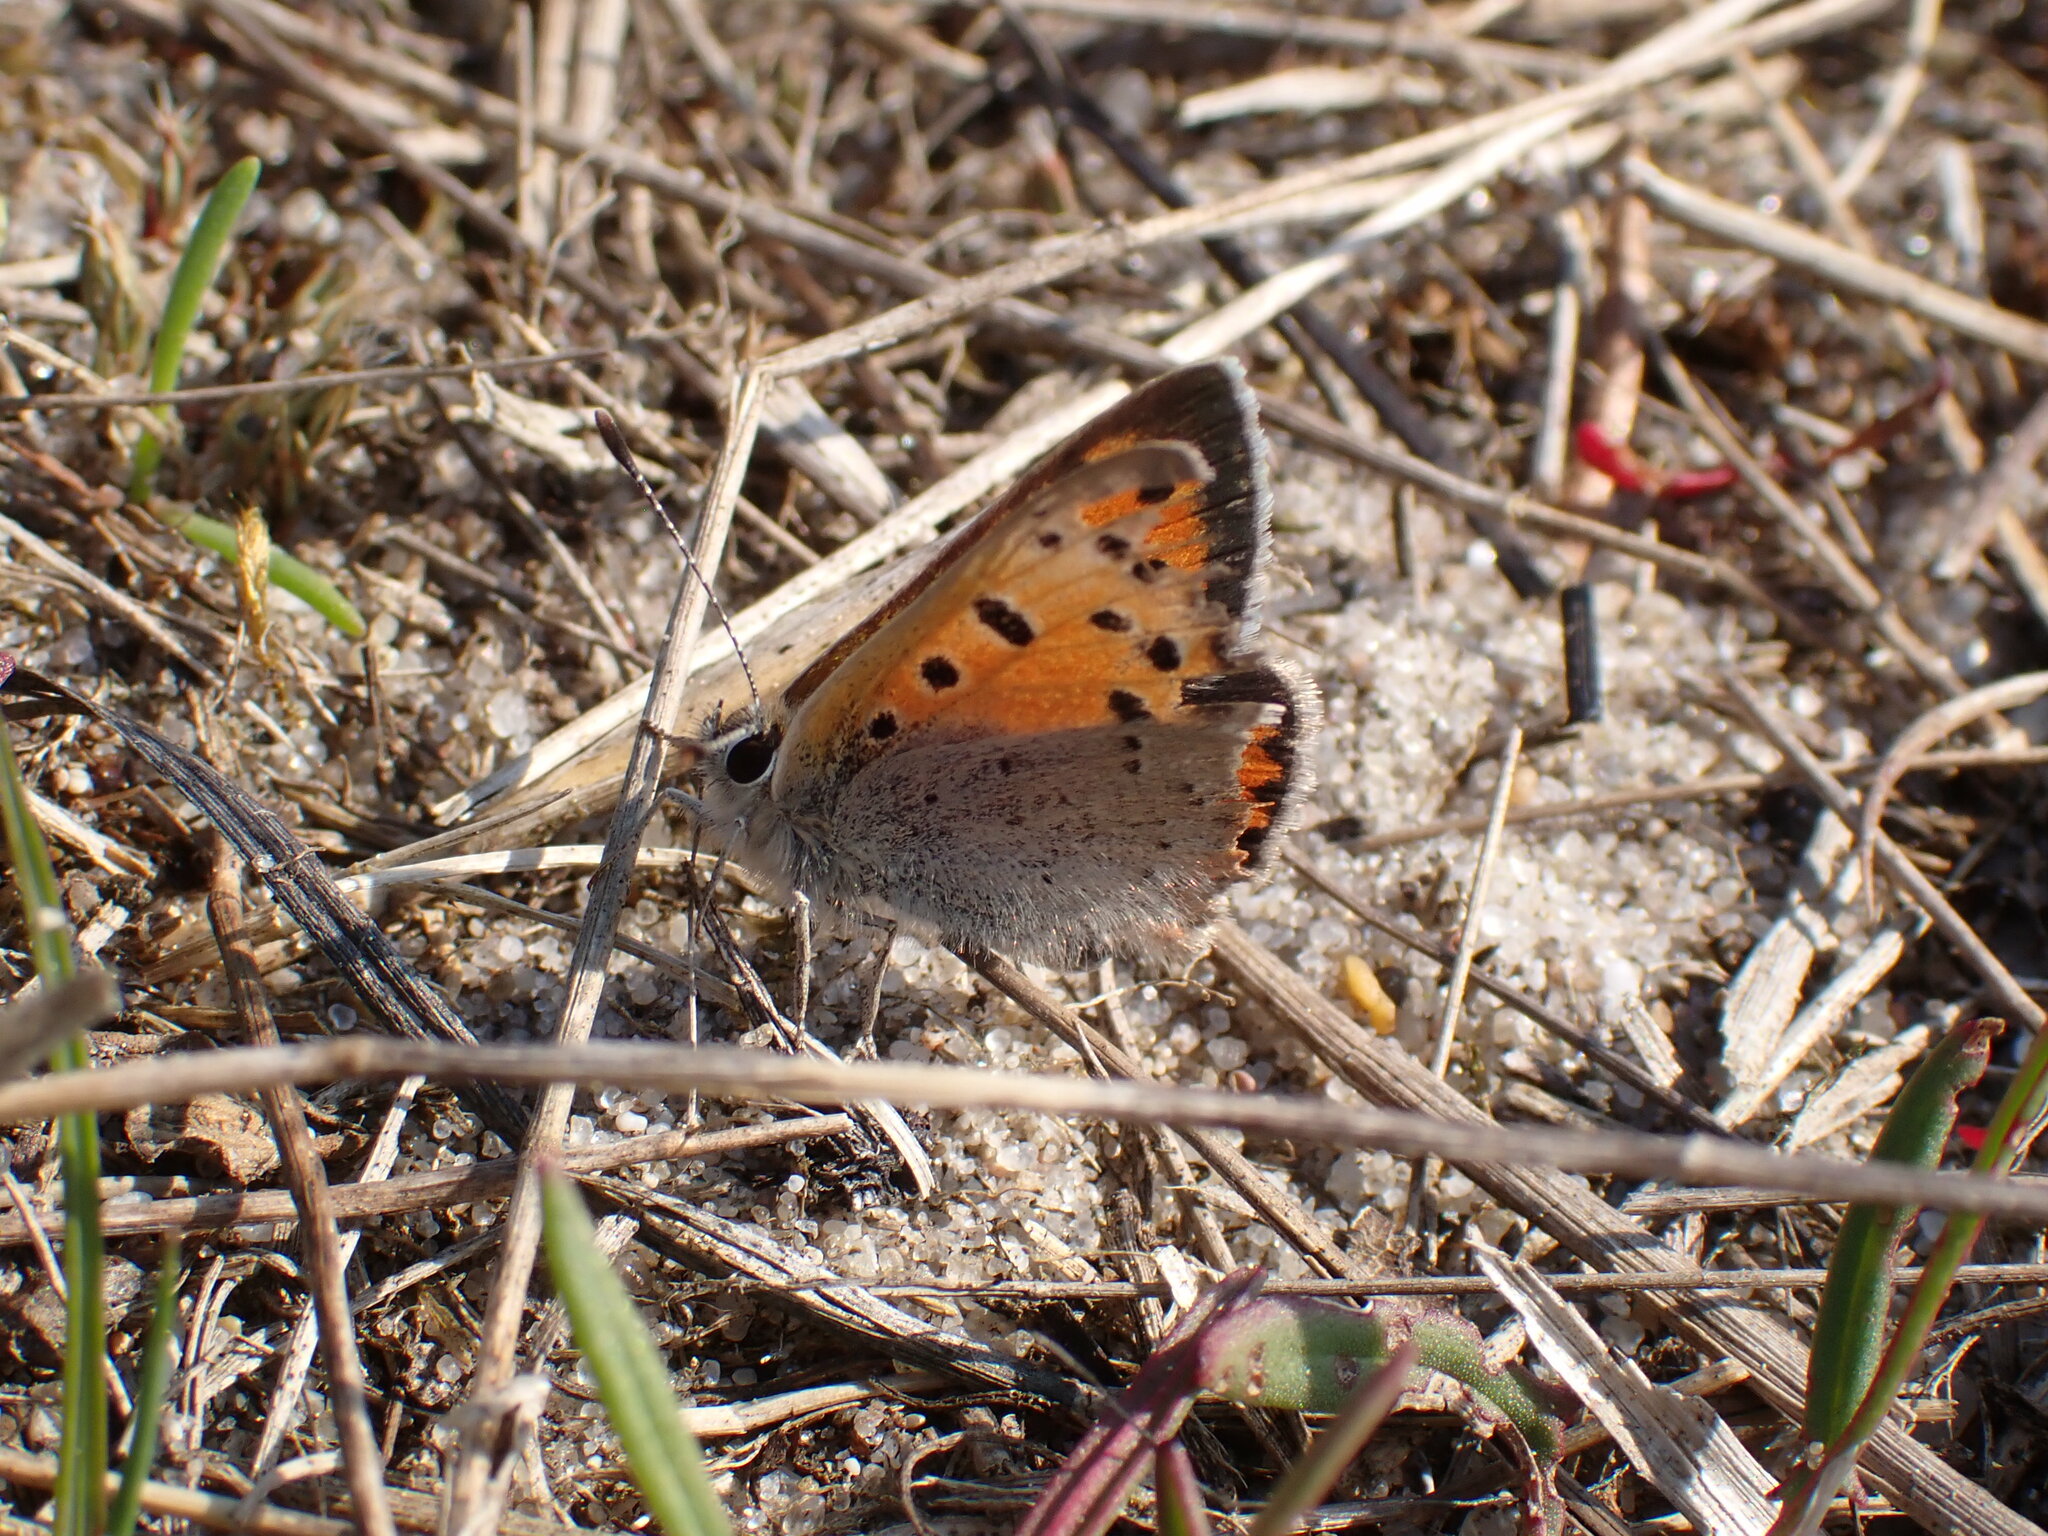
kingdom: Animalia
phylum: Arthropoda
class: Insecta
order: Lepidoptera
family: Lycaenidae
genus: Lycaena
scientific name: Lycaena phlaeas
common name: Small copper
